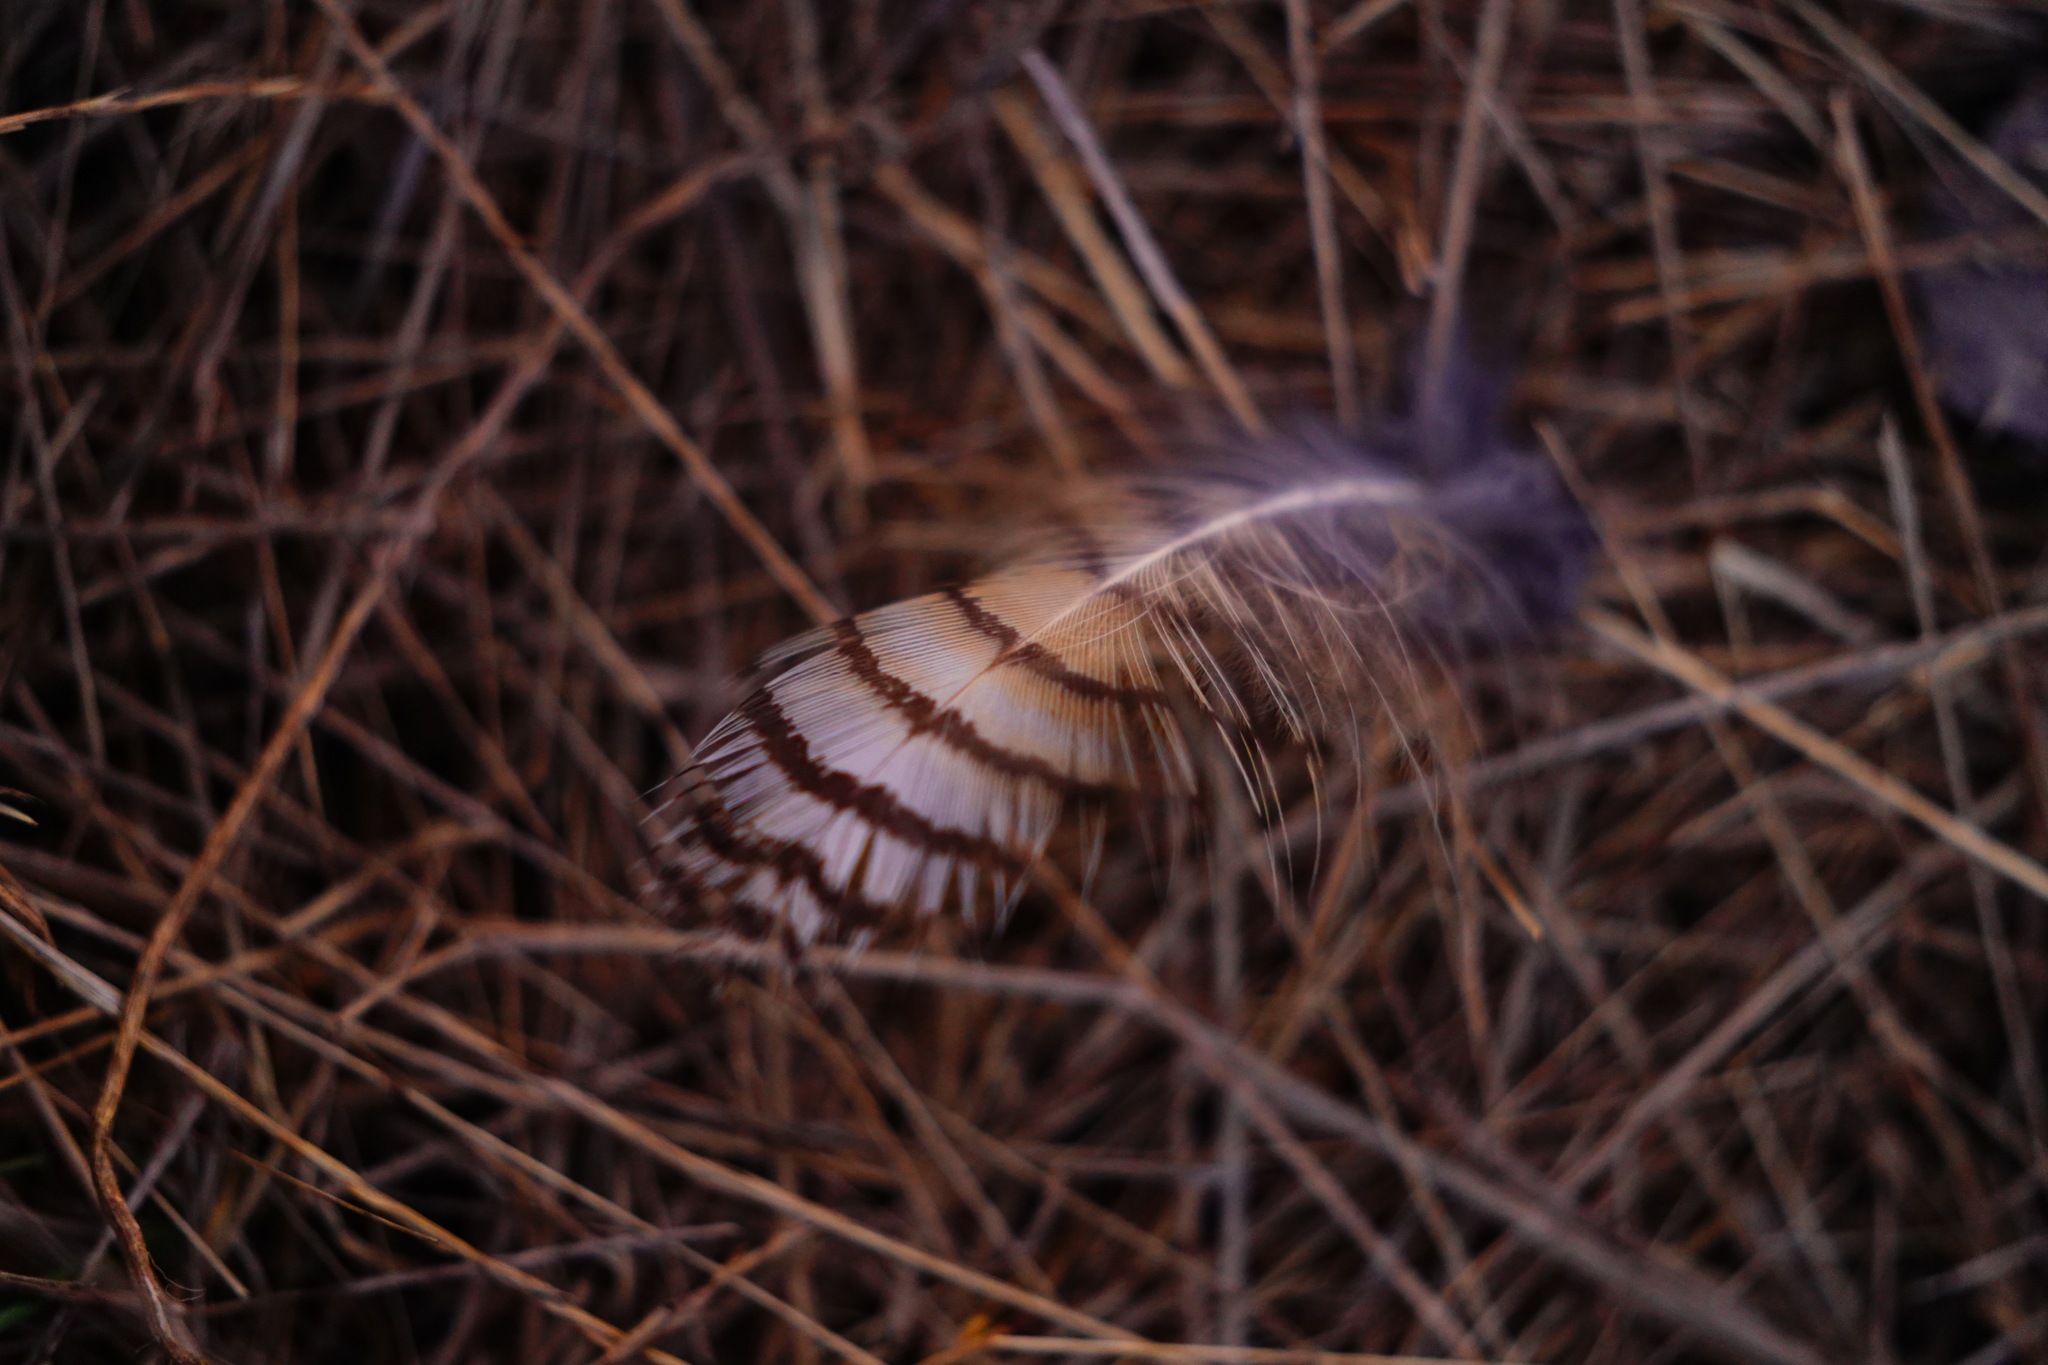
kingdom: Animalia
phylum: Chordata
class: Aves
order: Strigiformes
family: Strigidae
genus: Bubo
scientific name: Bubo virginianus
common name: Great horned owl
